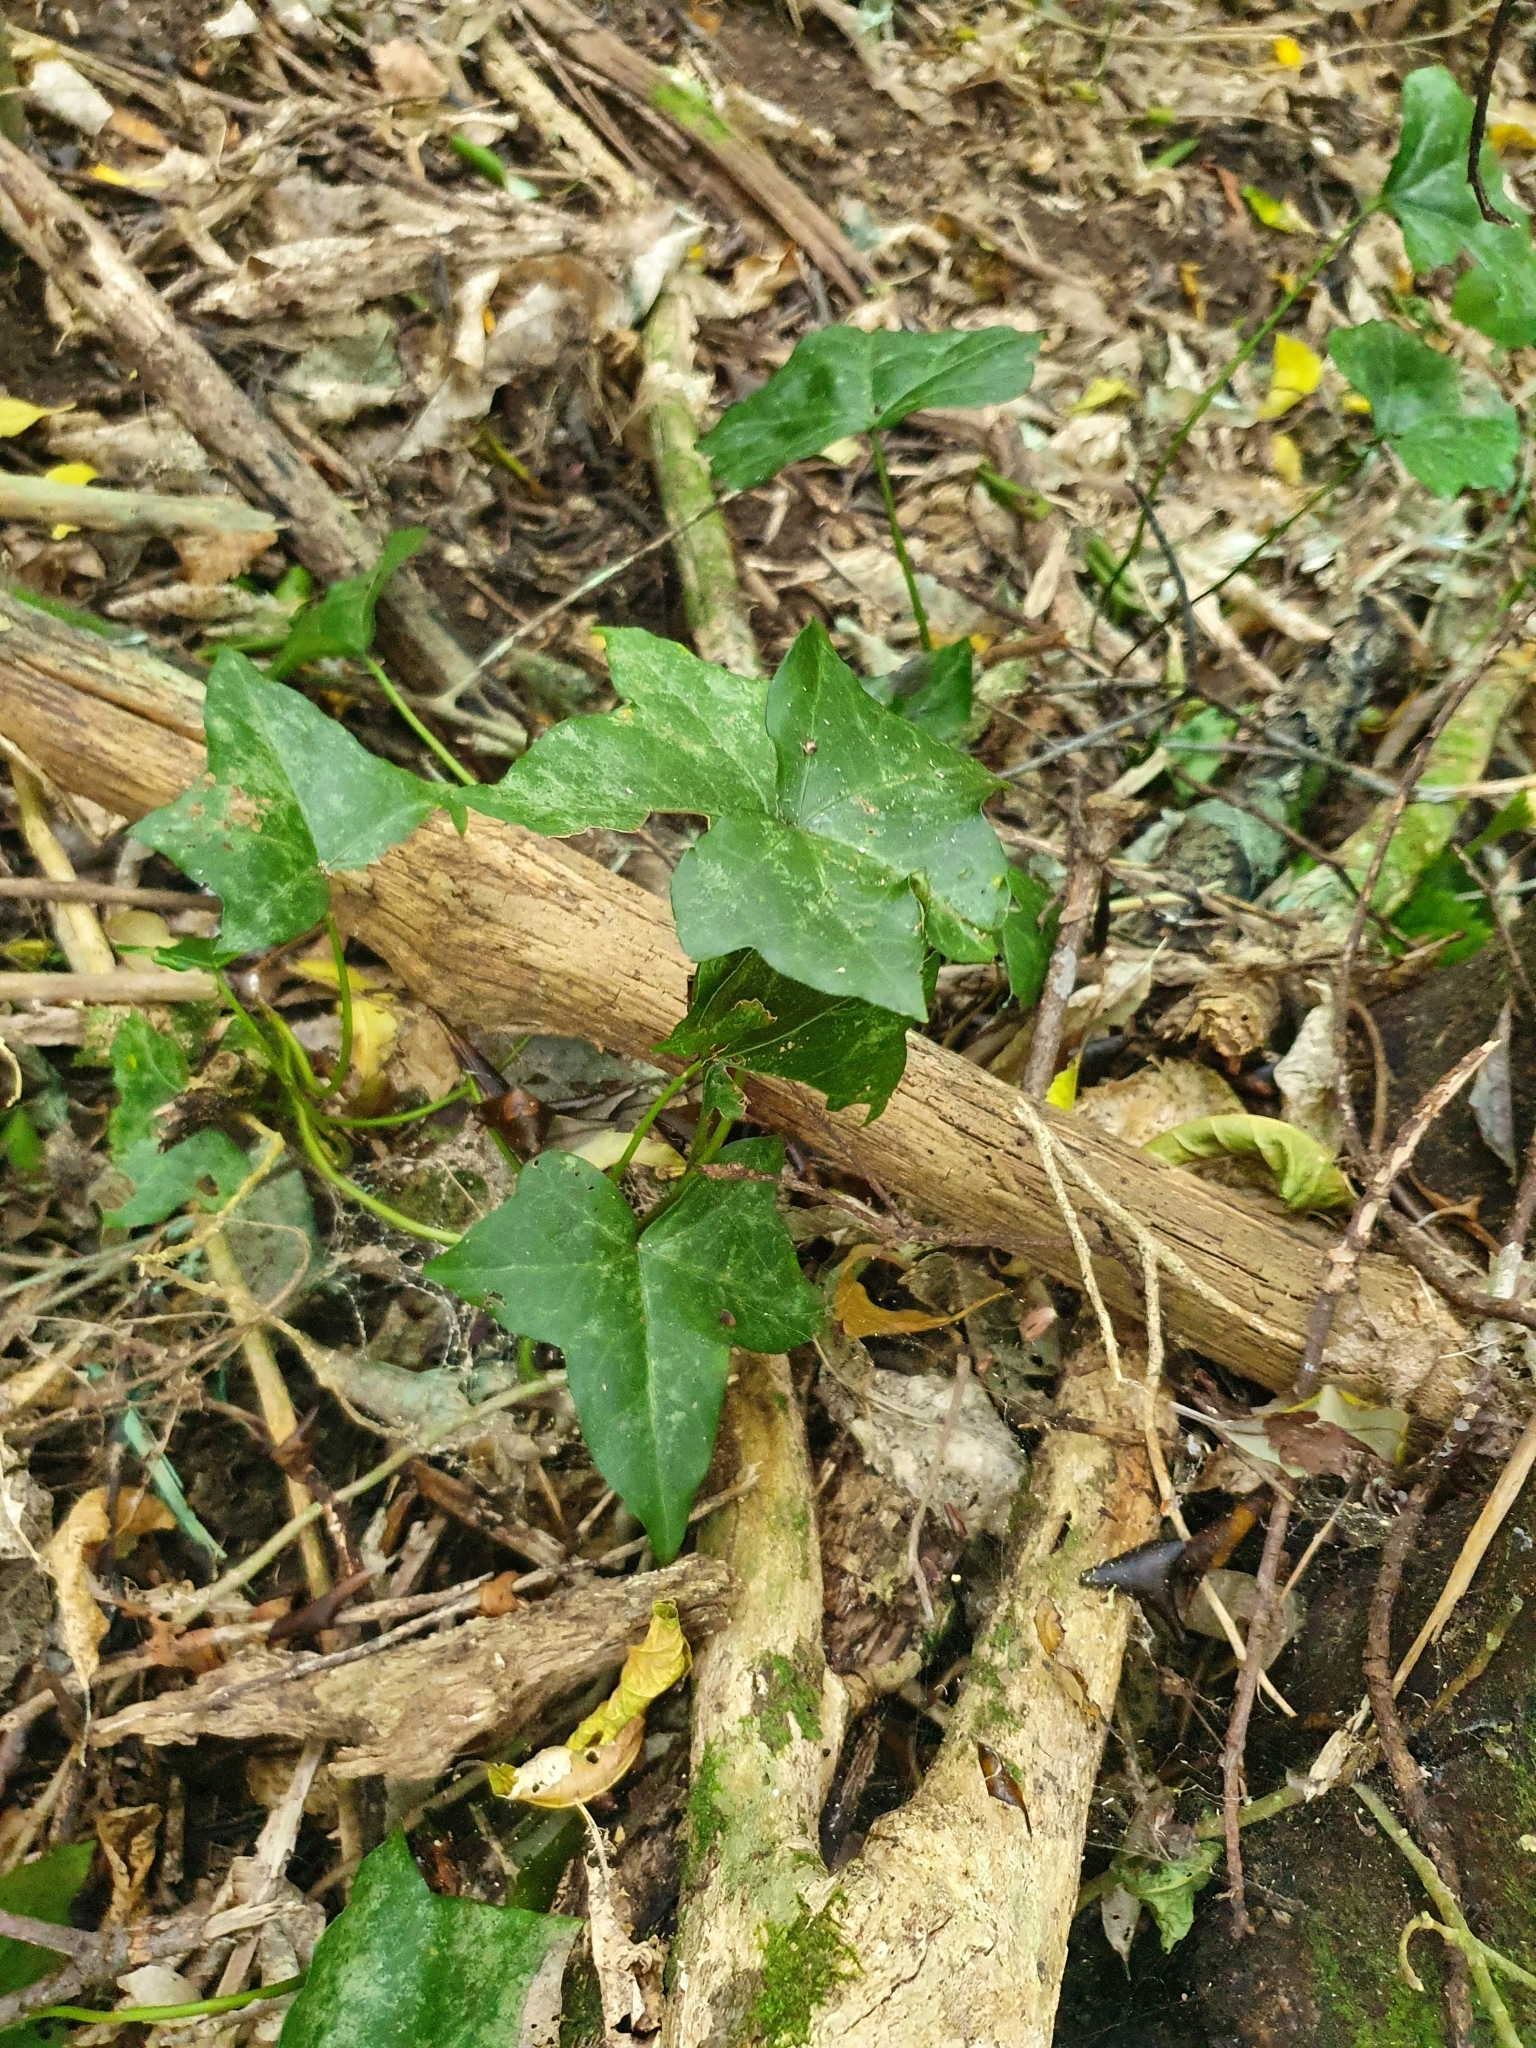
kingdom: Plantae
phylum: Tracheophyta
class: Magnoliopsida
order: Apiales
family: Araliaceae
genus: Hedera
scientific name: Hedera helix
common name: Ivy
